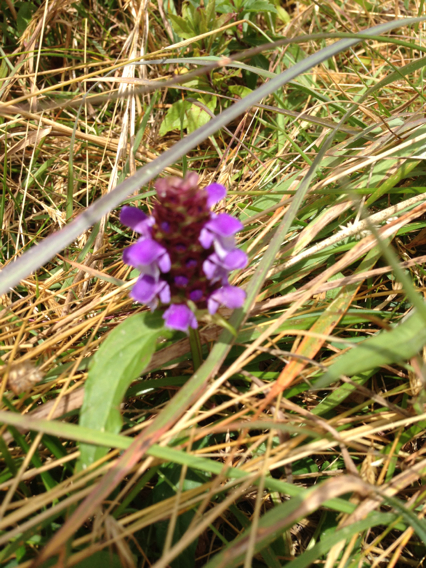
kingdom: Plantae
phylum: Tracheophyta
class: Magnoliopsida
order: Lamiales
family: Lamiaceae
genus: Prunella
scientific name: Prunella vulgaris
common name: Heal-all
